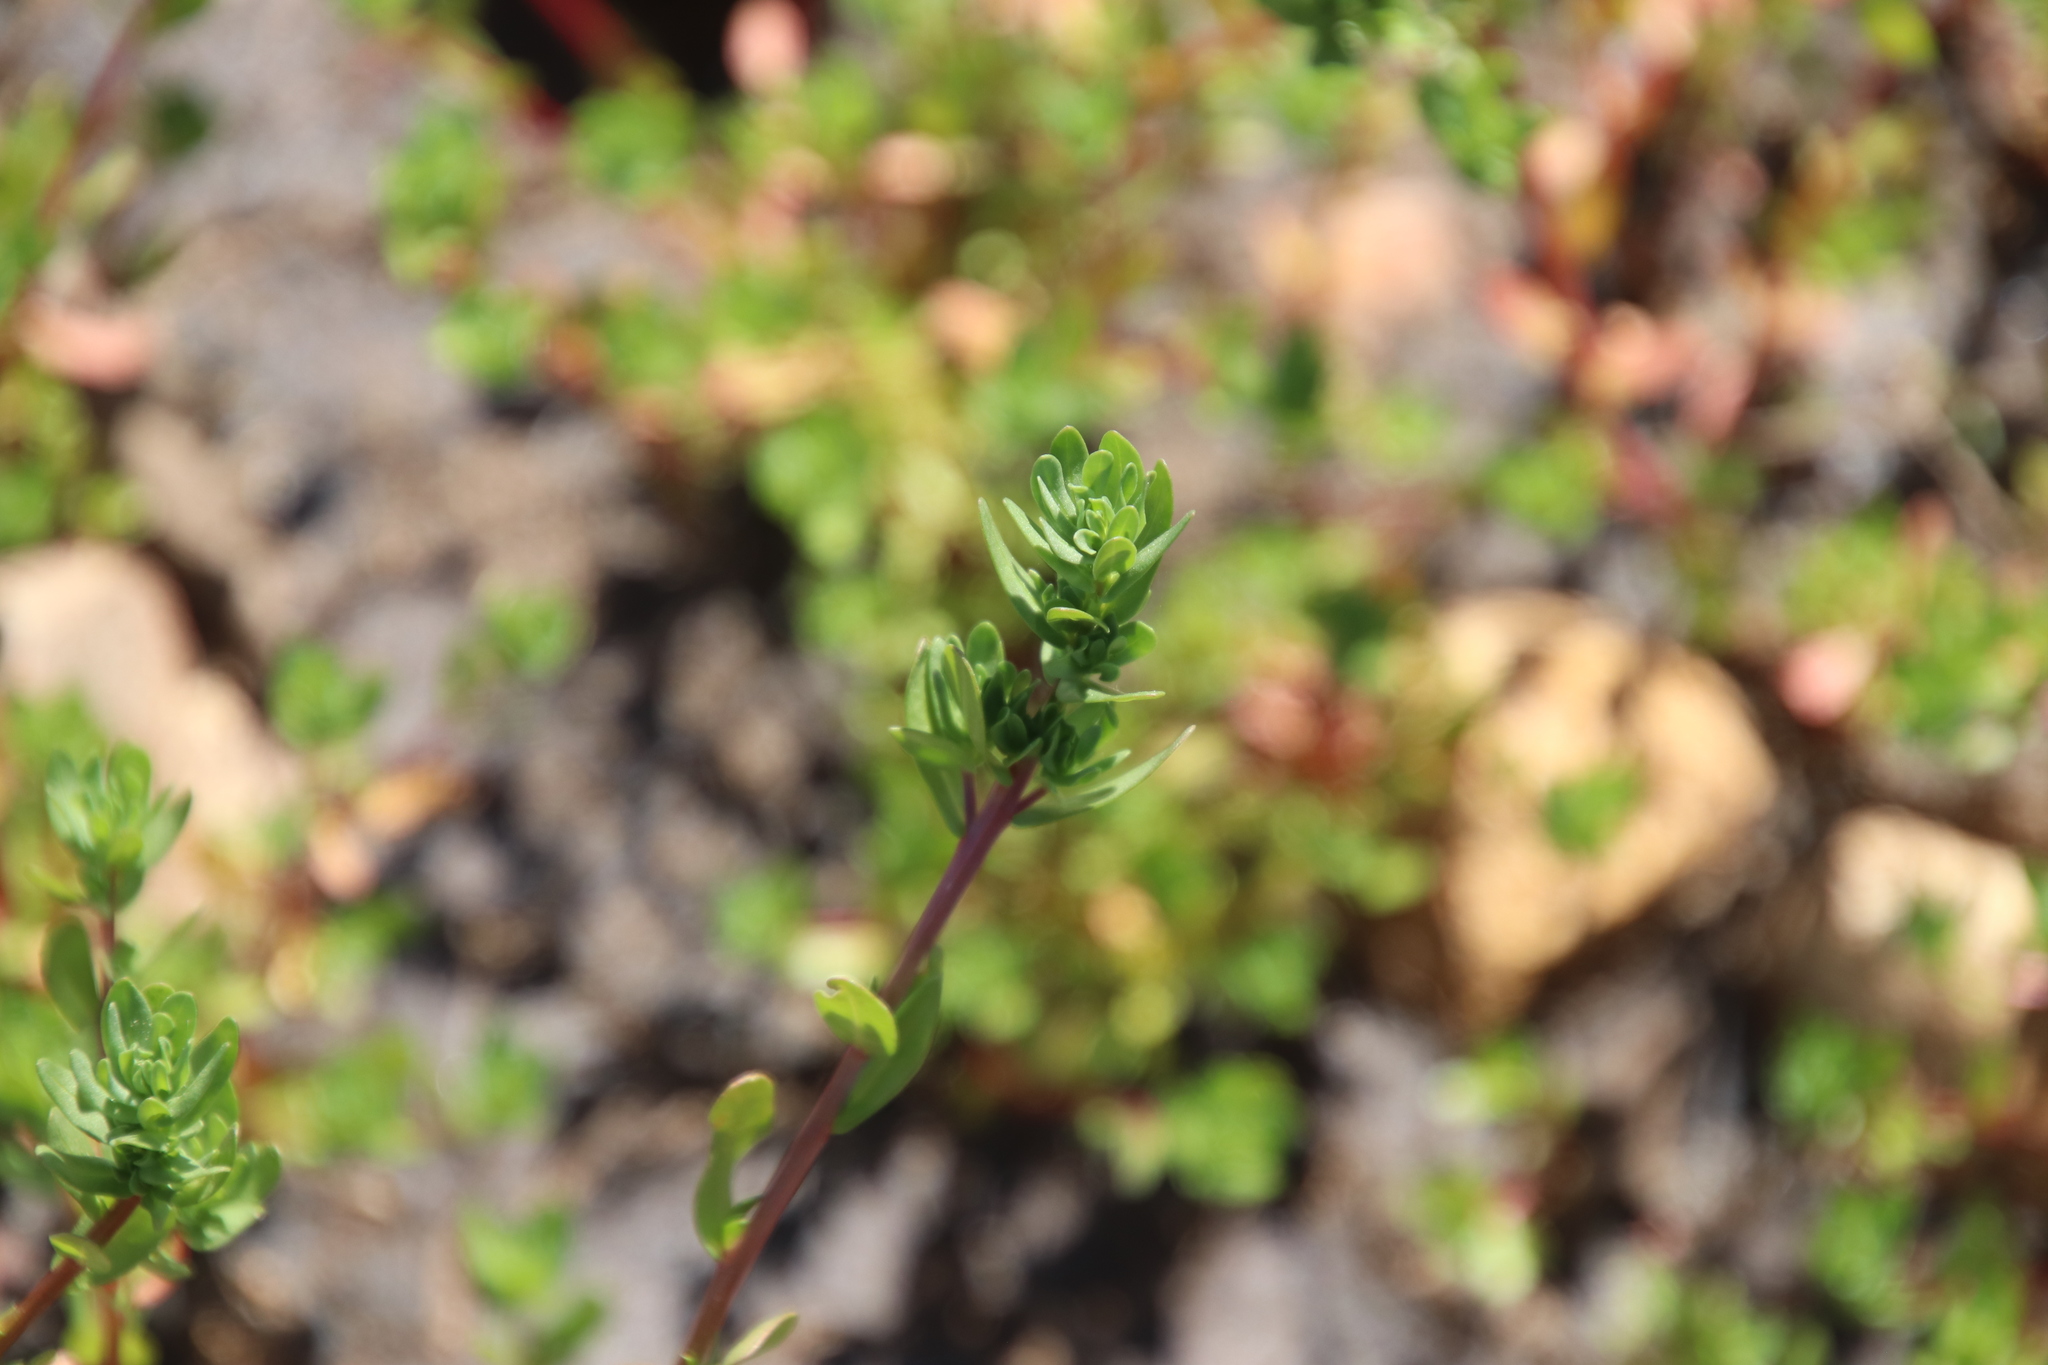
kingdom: Plantae
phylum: Tracheophyta
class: Magnoliopsida
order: Myrtales
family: Lythraceae
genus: Lythrum
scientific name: Lythrum hyssopifolia
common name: Grass-poly
